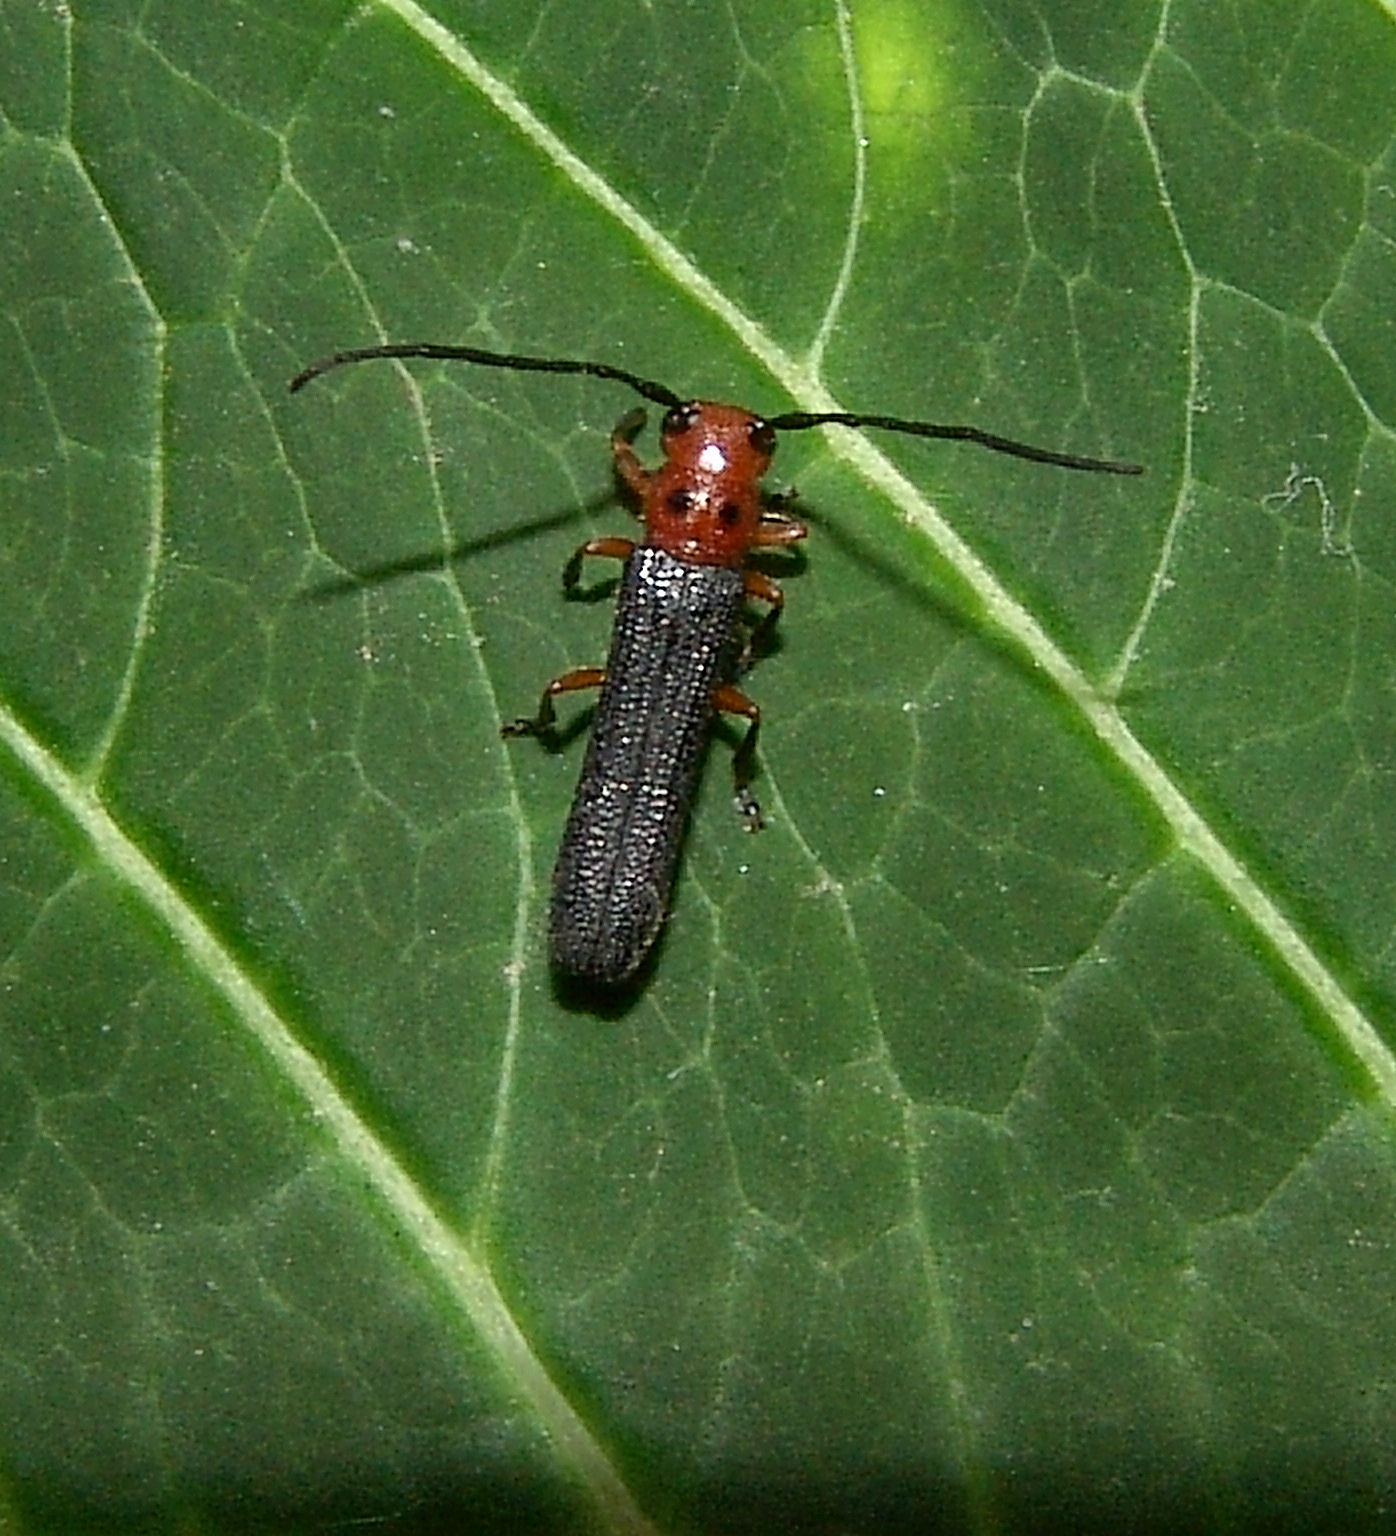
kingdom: Animalia
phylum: Arthropoda
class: Insecta
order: Coleoptera
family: Cerambycidae
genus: Oberea
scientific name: Oberea ocellata
